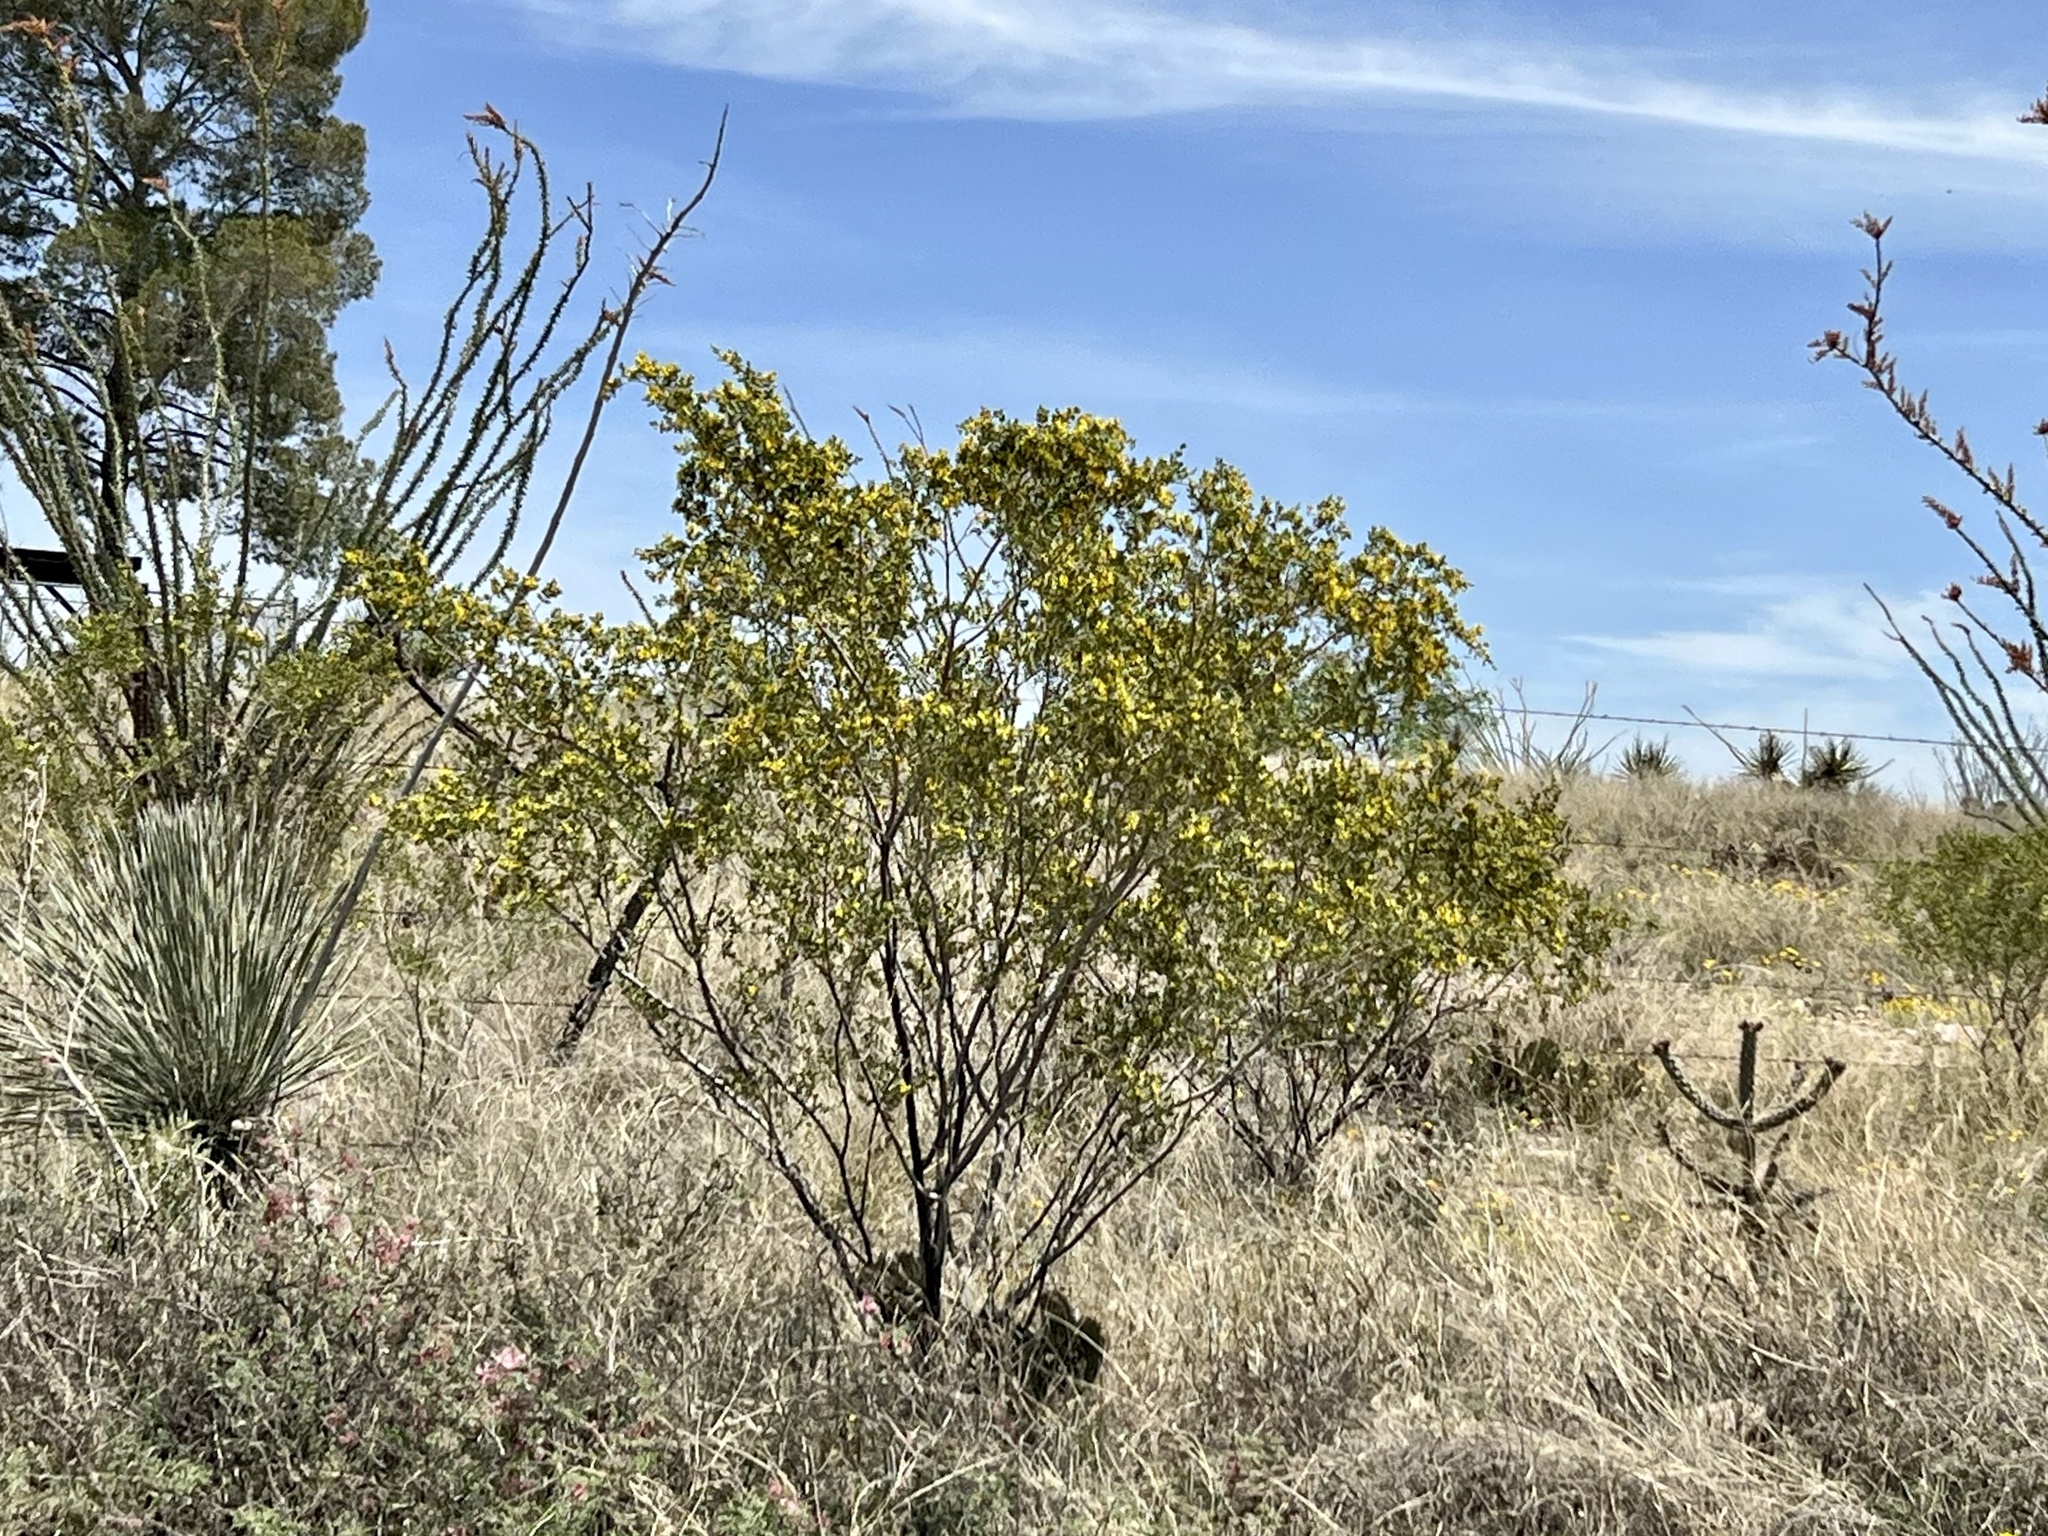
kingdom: Plantae
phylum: Tracheophyta
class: Magnoliopsida
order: Zygophyllales
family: Zygophyllaceae
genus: Larrea
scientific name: Larrea tridentata
